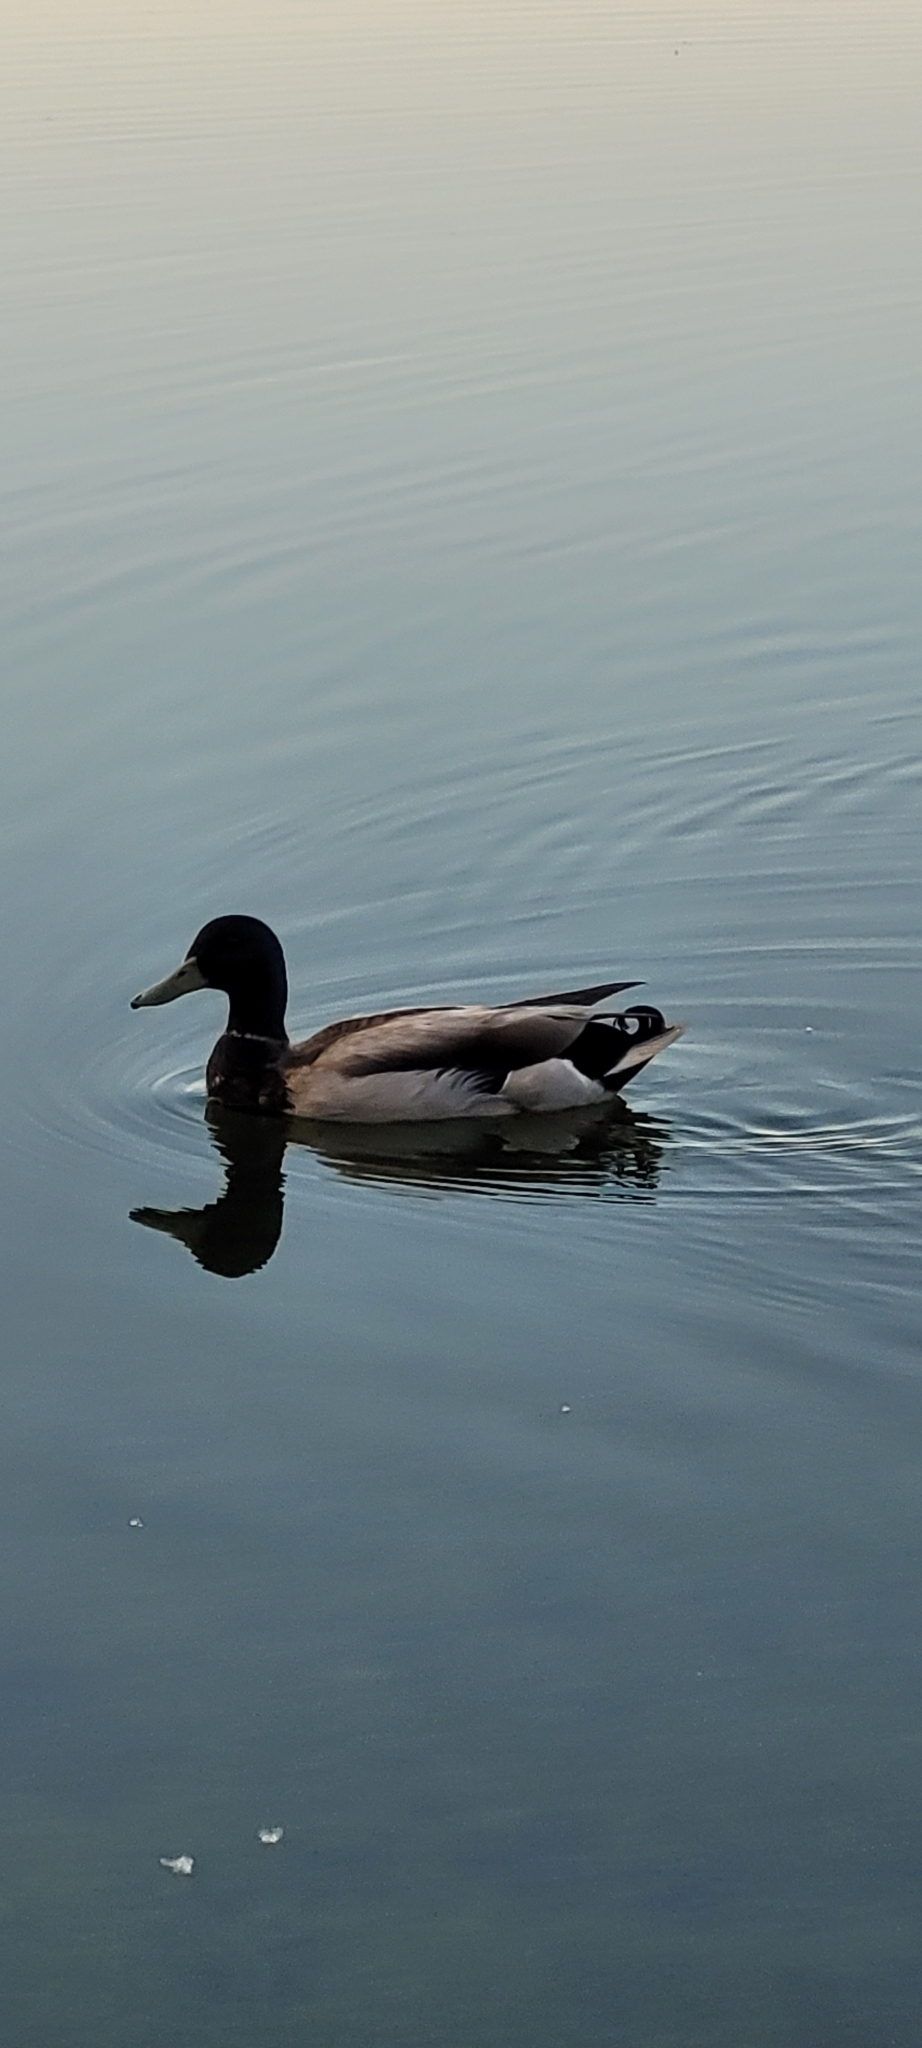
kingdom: Animalia
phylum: Chordata
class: Aves
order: Anseriformes
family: Anatidae
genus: Anas
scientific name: Anas platyrhynchos
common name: Mallard
